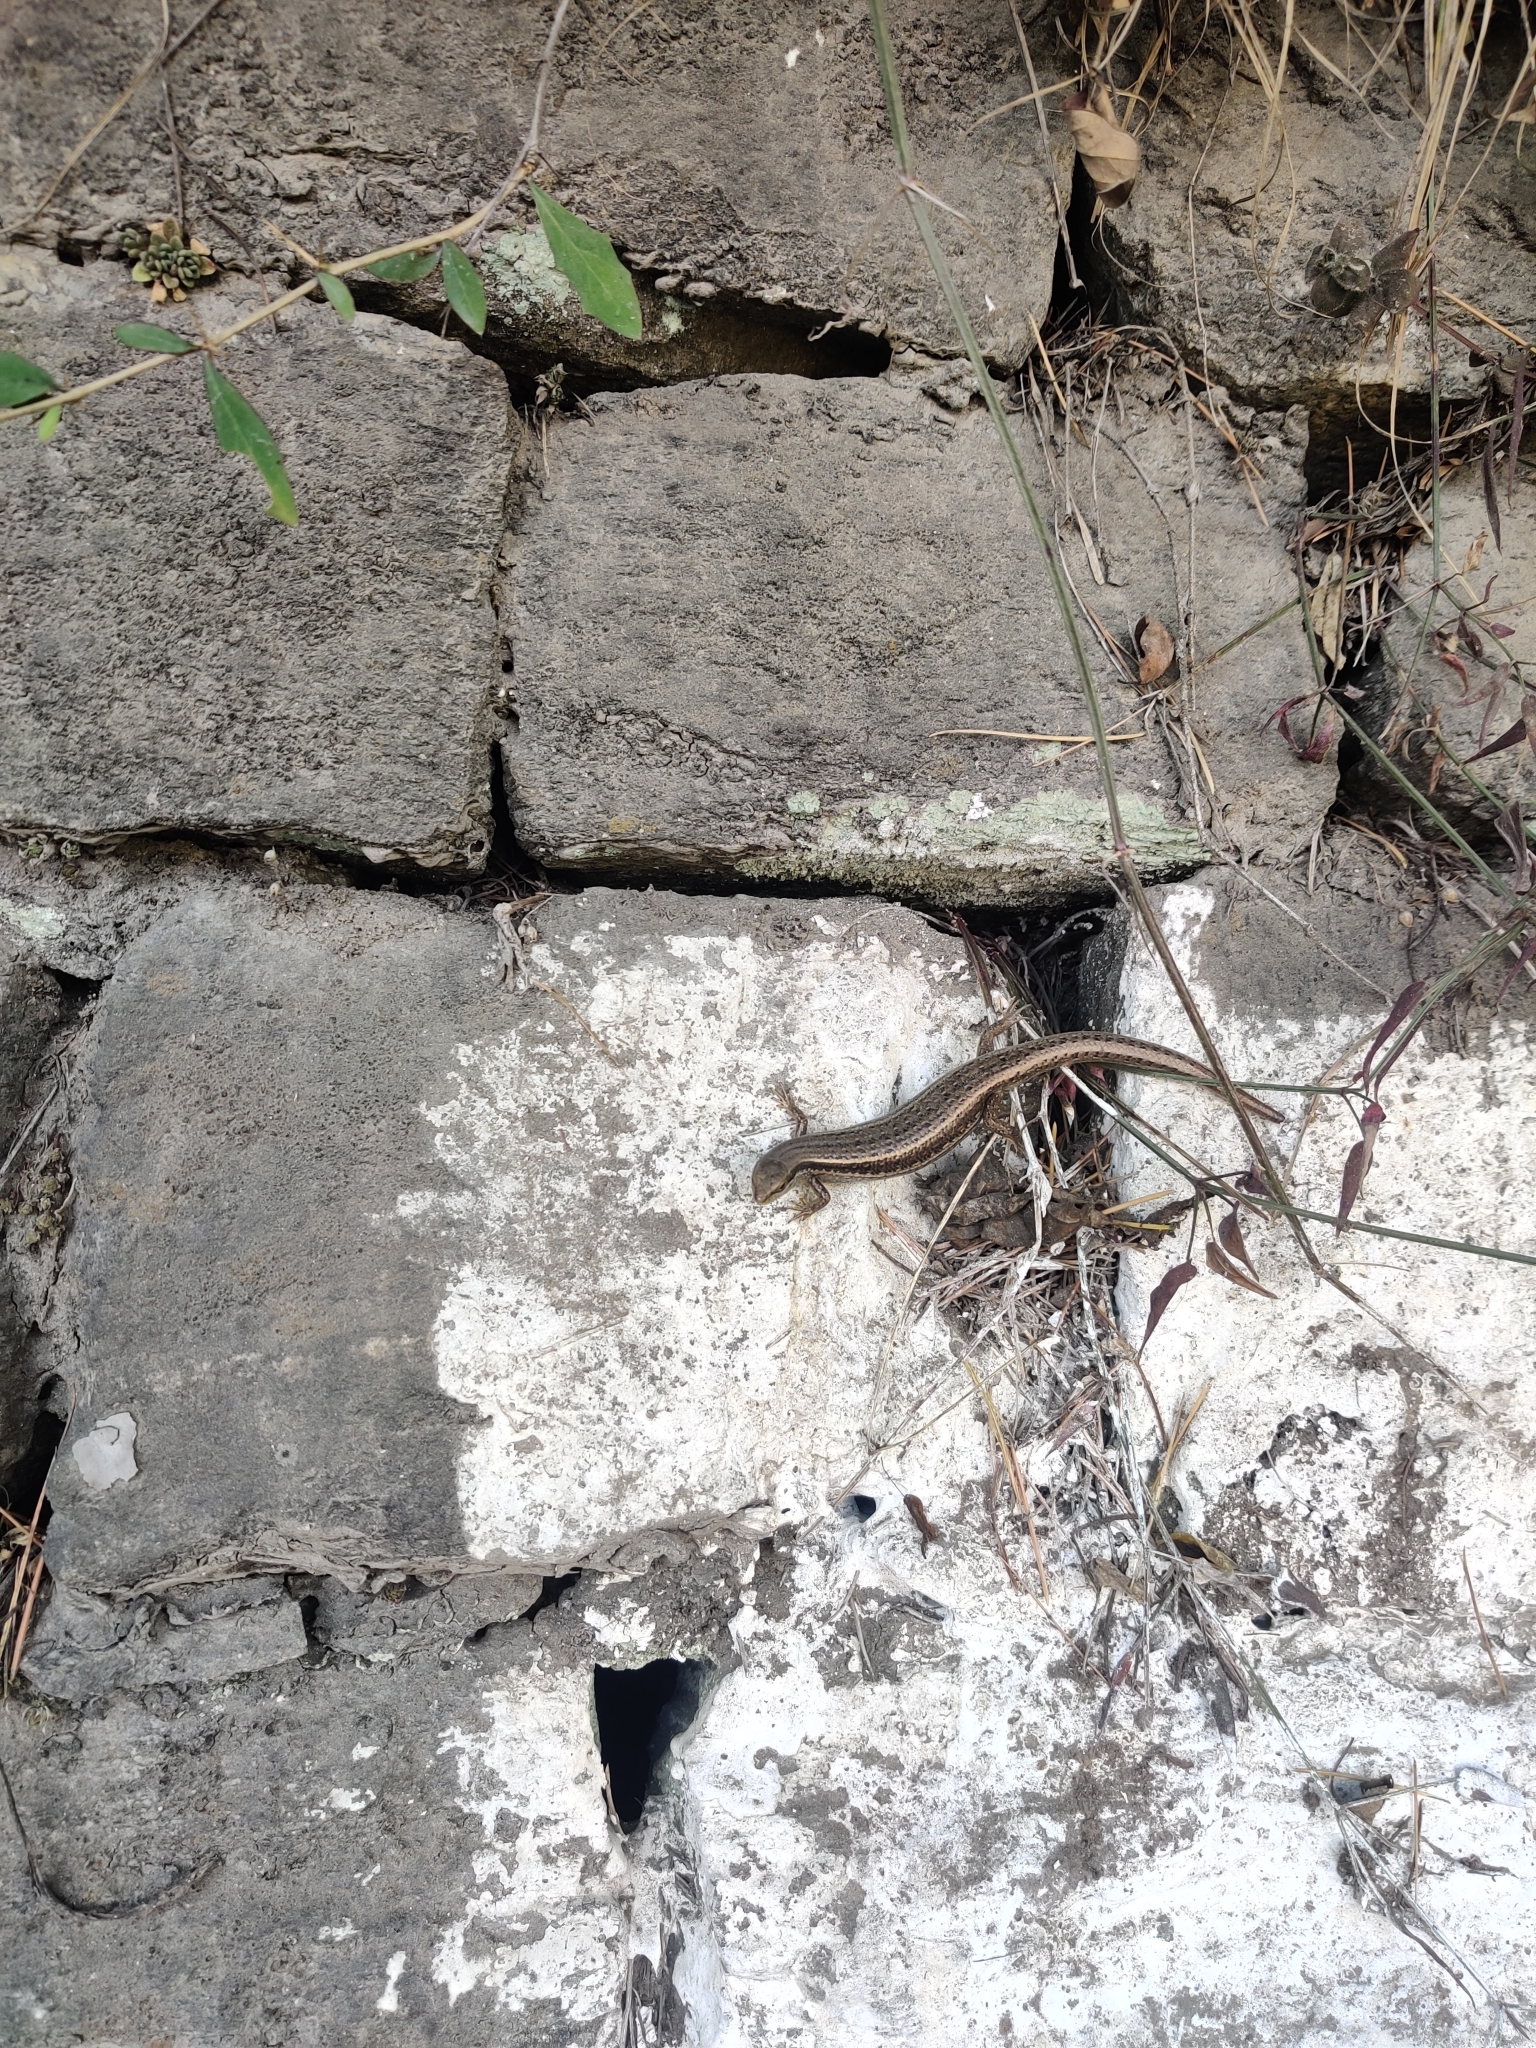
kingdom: Animalia
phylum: Chordata
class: Squamata
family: Scincidae
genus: Asymblepharus
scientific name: Asymblepharus himalayanus
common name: Himalaya ground skink
